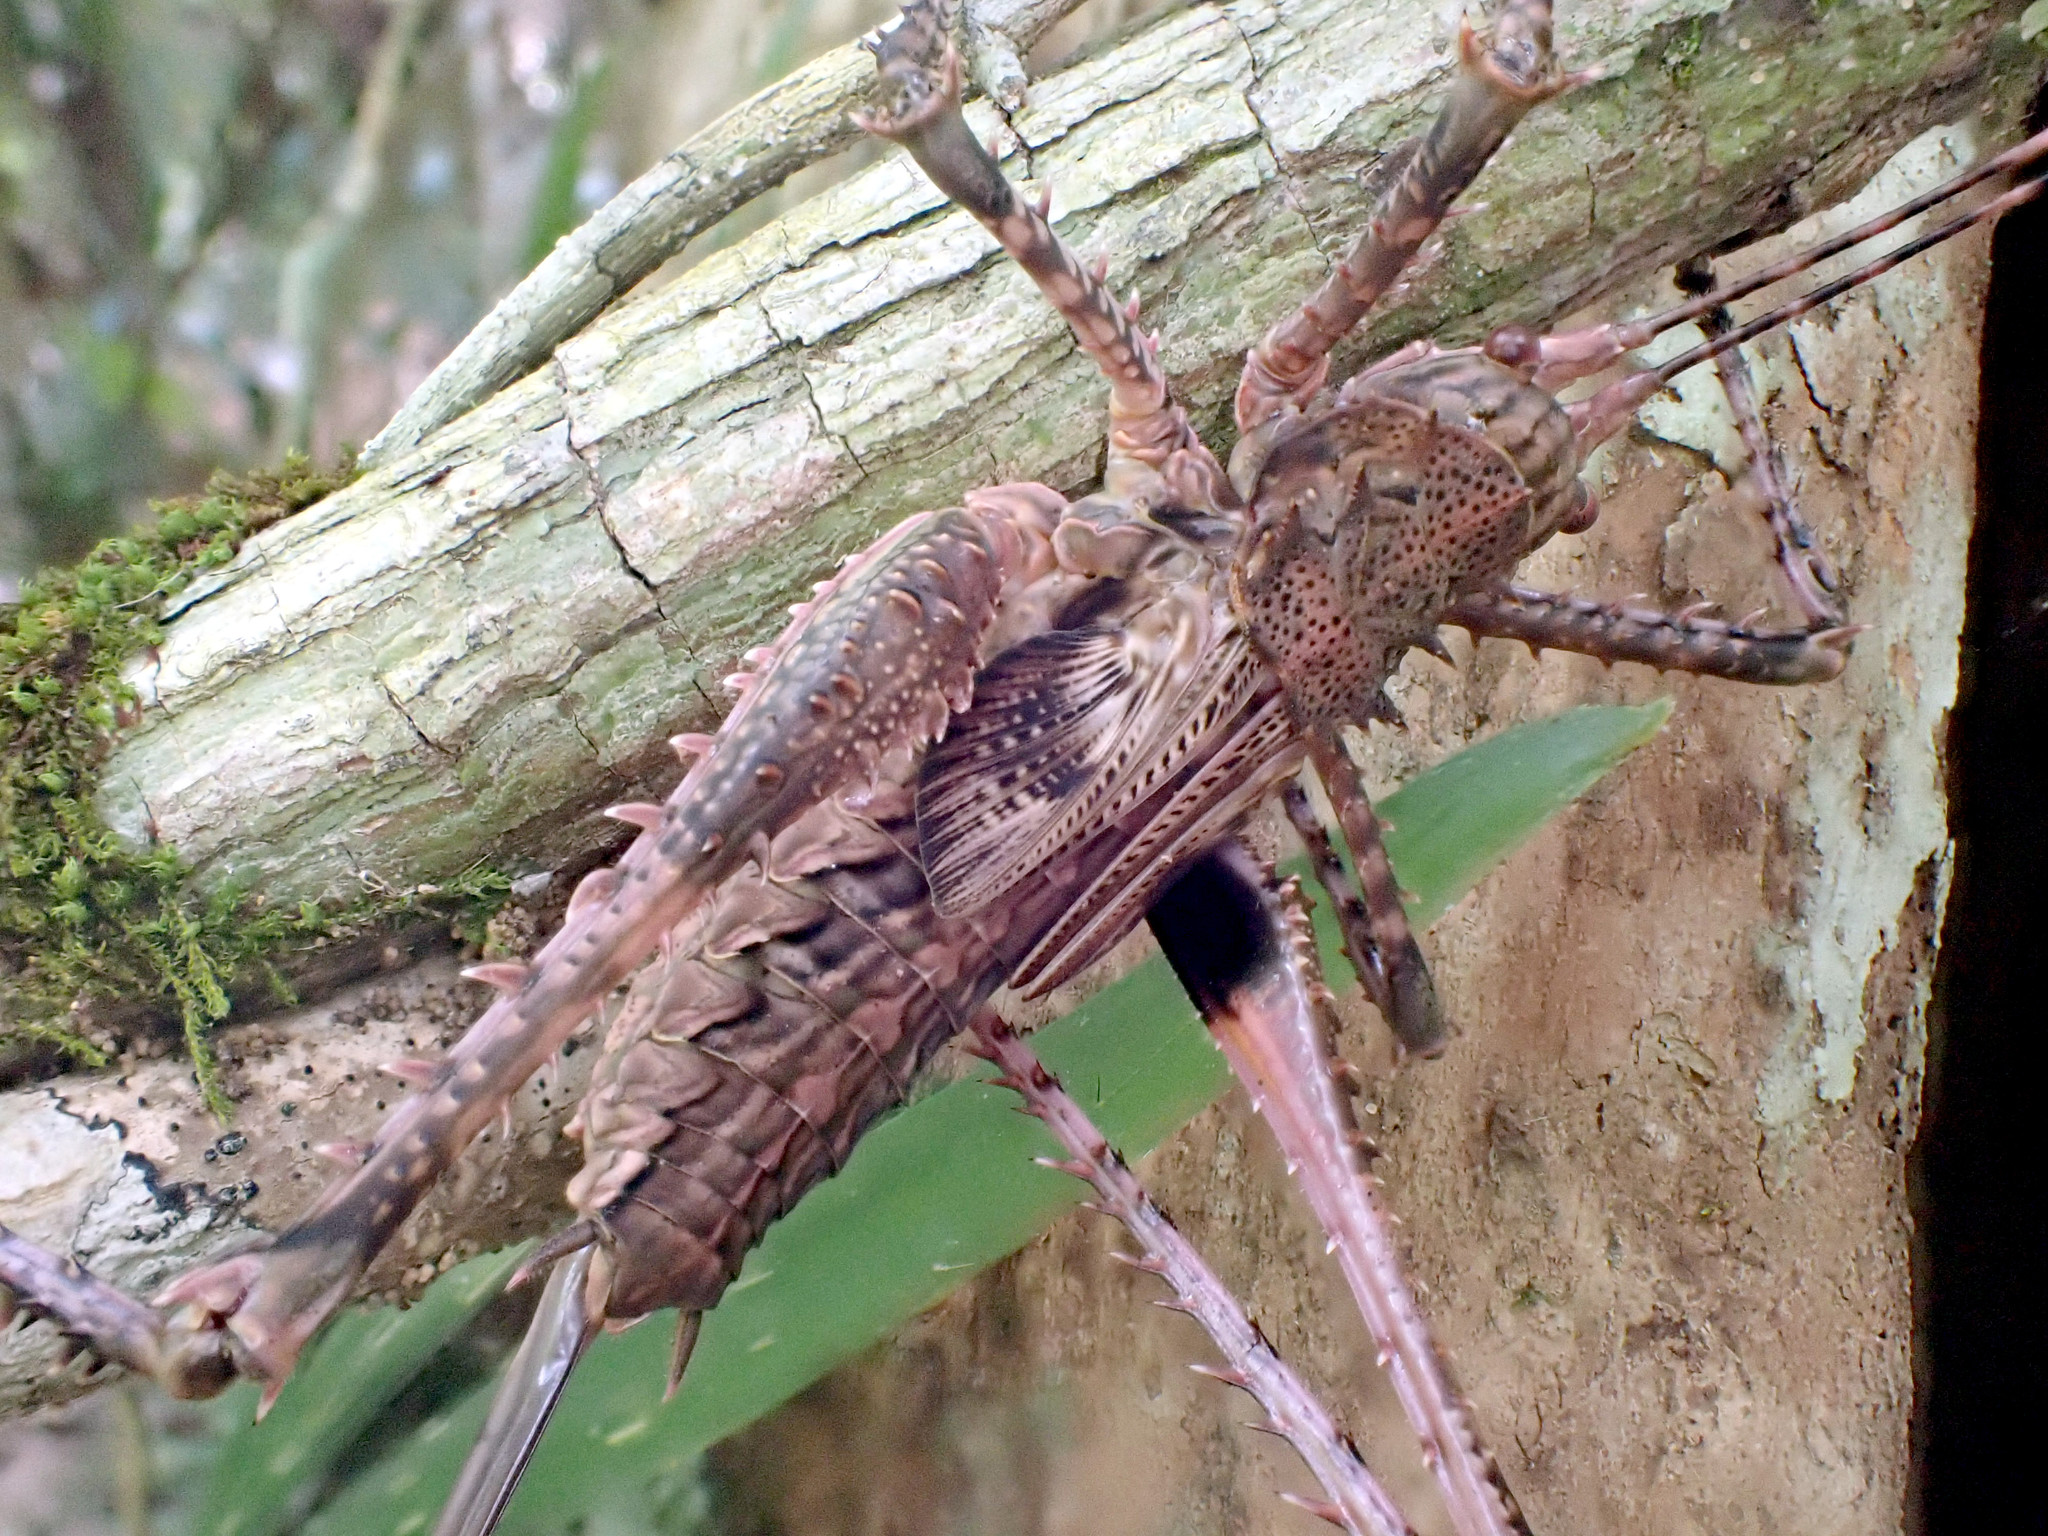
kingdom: Animalia
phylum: Arthropoda
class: Insecta
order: Orthoptera
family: Tettigoniidae
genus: Phricta
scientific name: Phricta spinosa
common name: Giant spiny forest katydid
